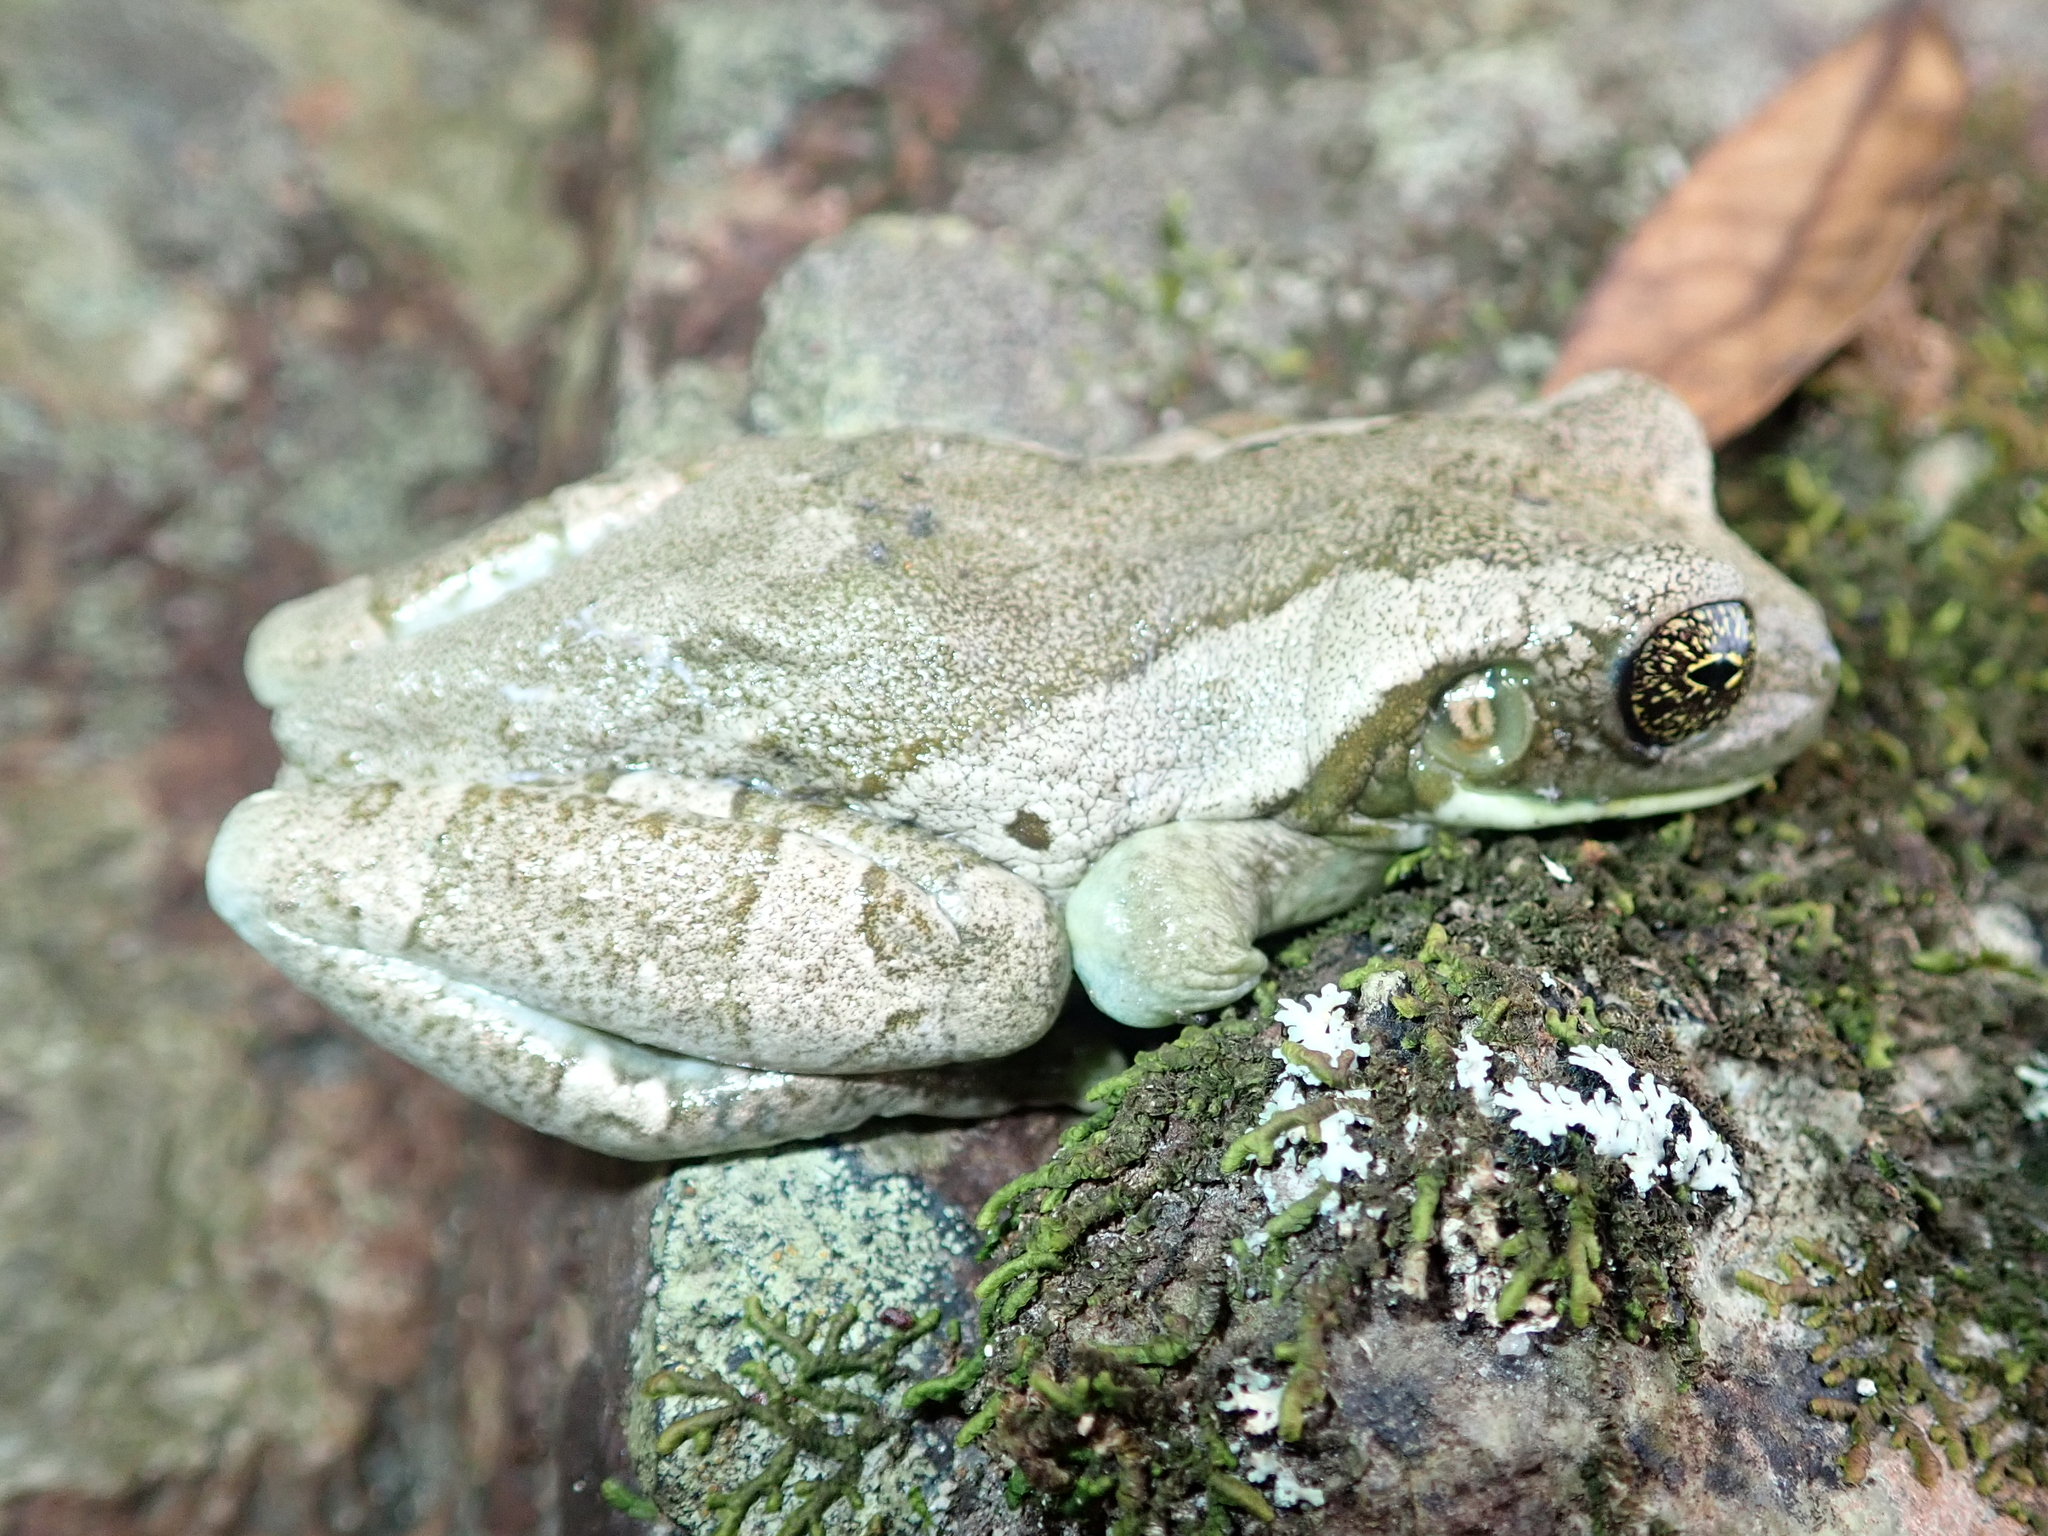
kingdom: Animalia
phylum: Chordata
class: Amphibia
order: Anura
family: Hylidae
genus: Trachycephalus
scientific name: Trachycephalus typhonius
